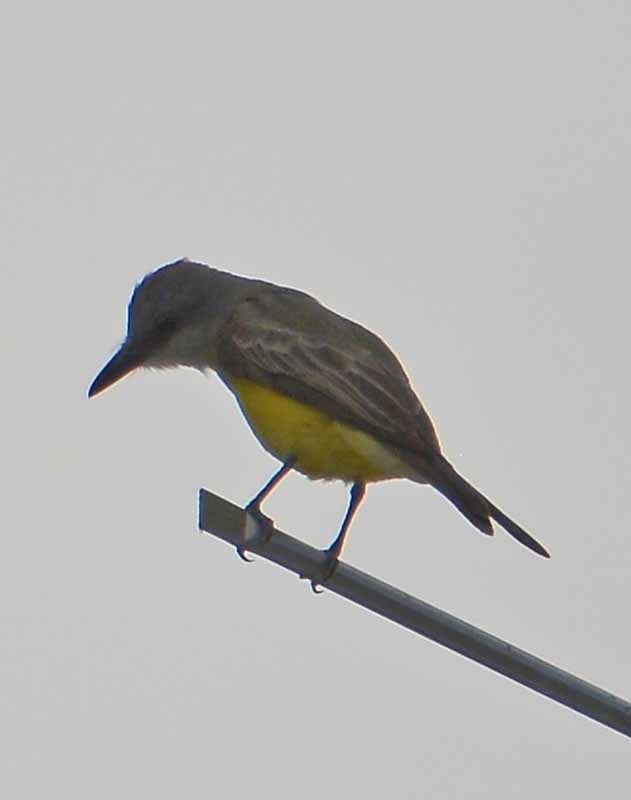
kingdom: Animalia
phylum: Chordata
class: Aves
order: Passeriformes
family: Tyrannidae
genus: Tyrannus
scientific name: Tyrannus melancholicus
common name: Tropical kingbird
